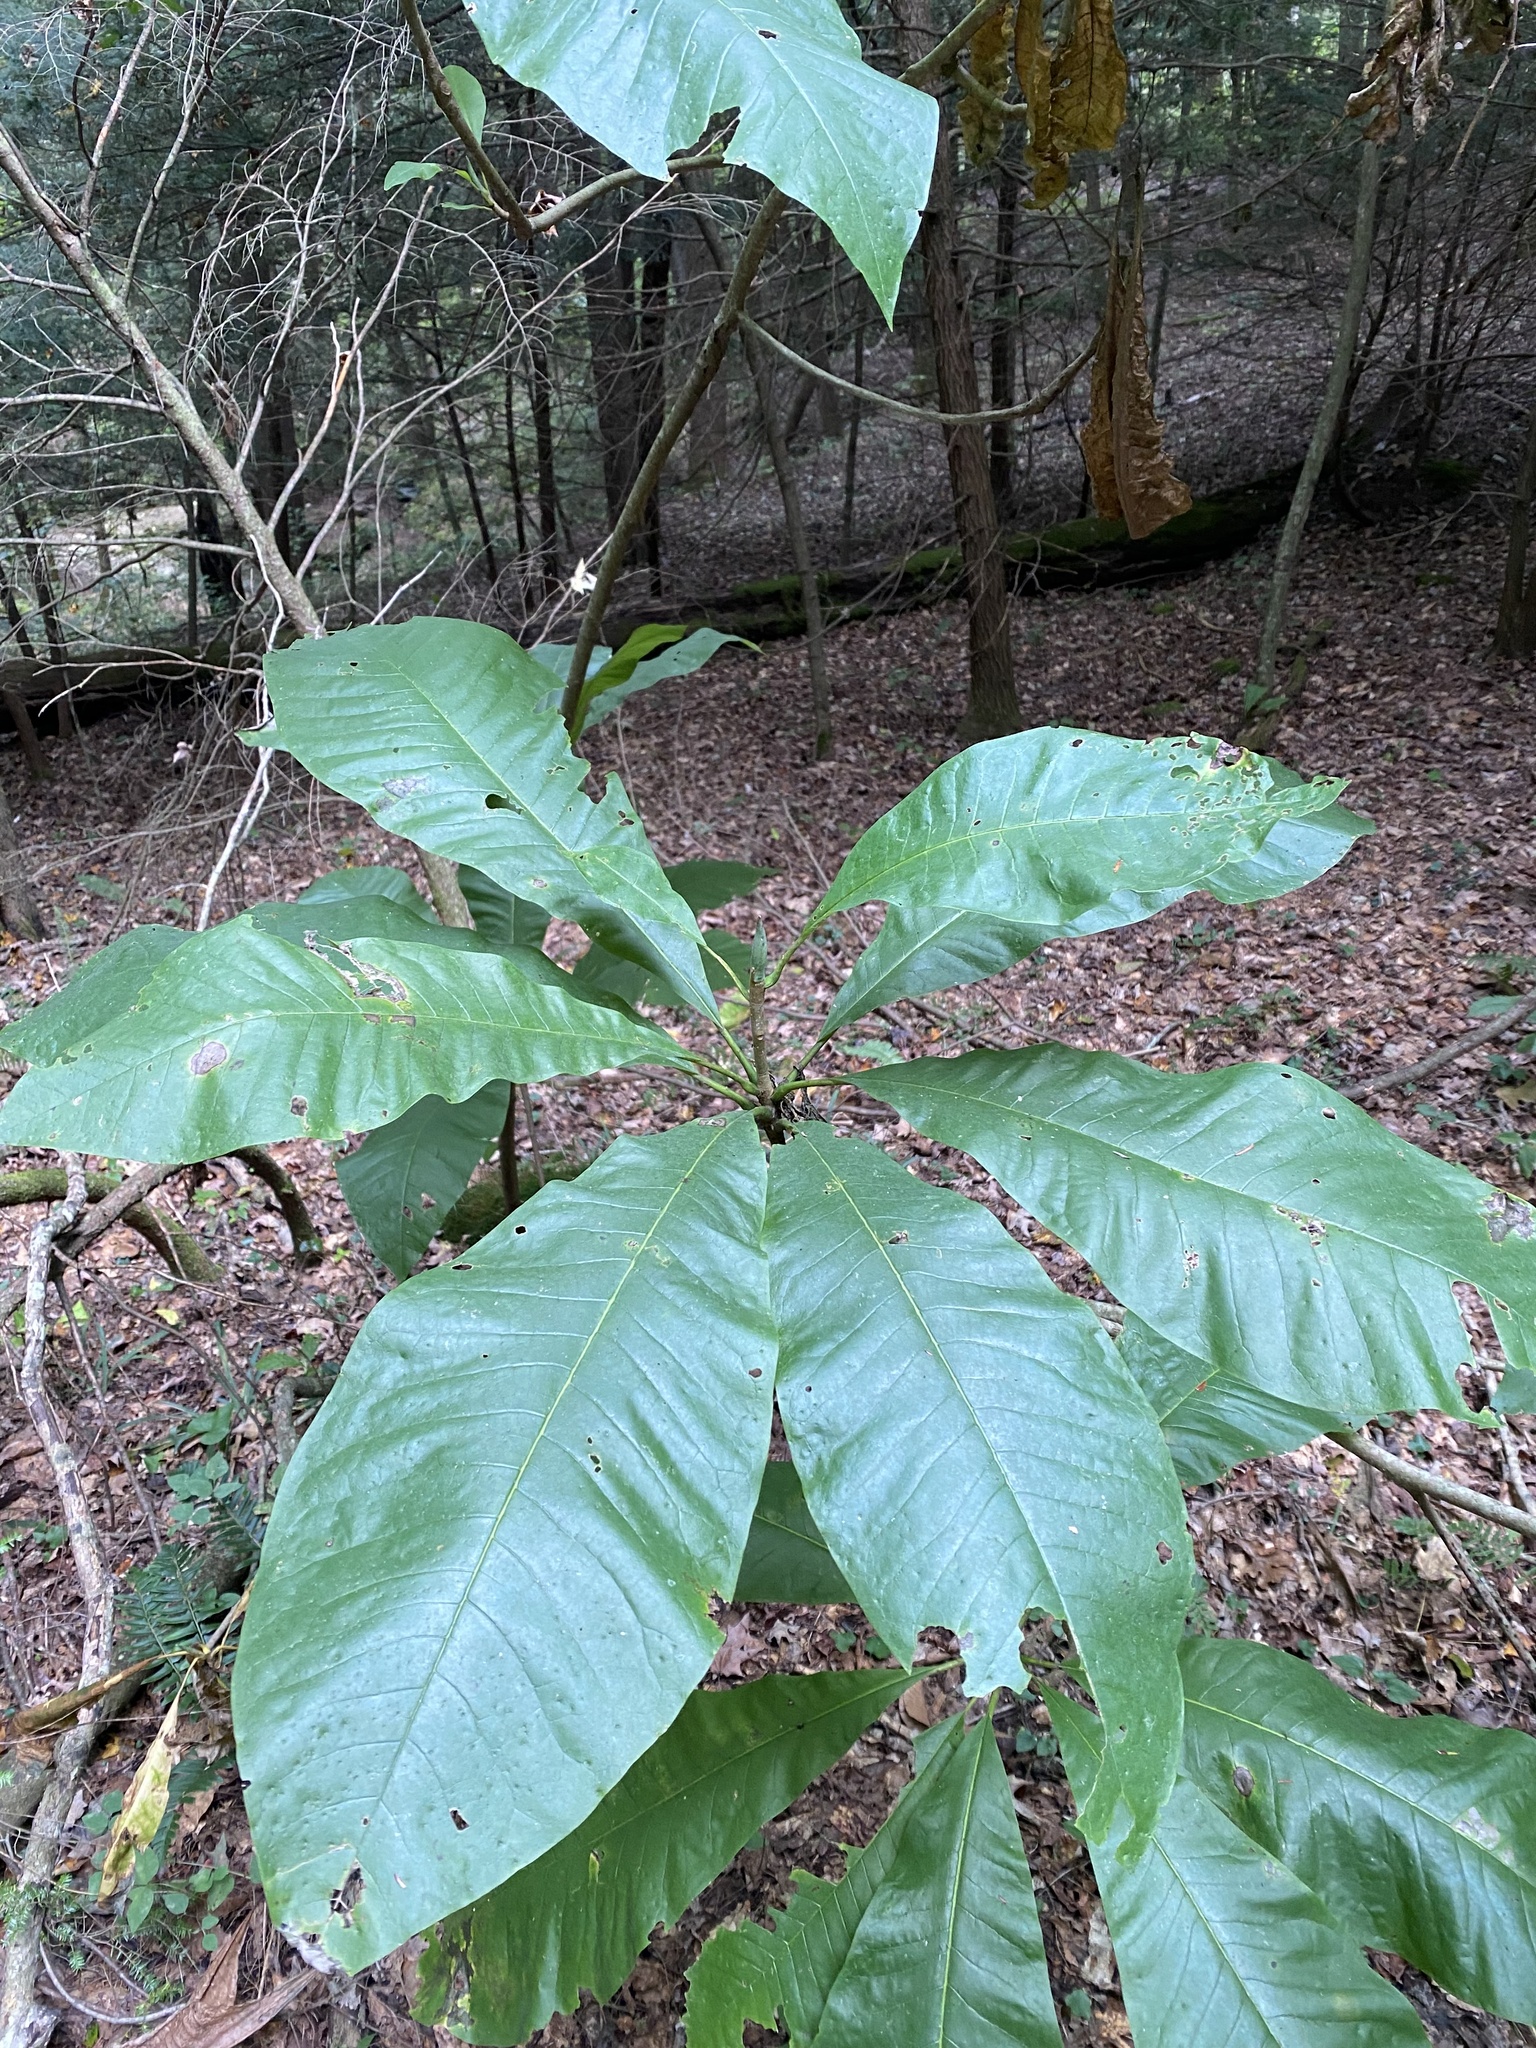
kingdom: Plantae
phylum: Tracheophyta
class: Magnoliopsida
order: Magnoliales
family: Magnoliaceae
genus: Magnolia
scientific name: Magnolia tripetala
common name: Umbrella magnolia
